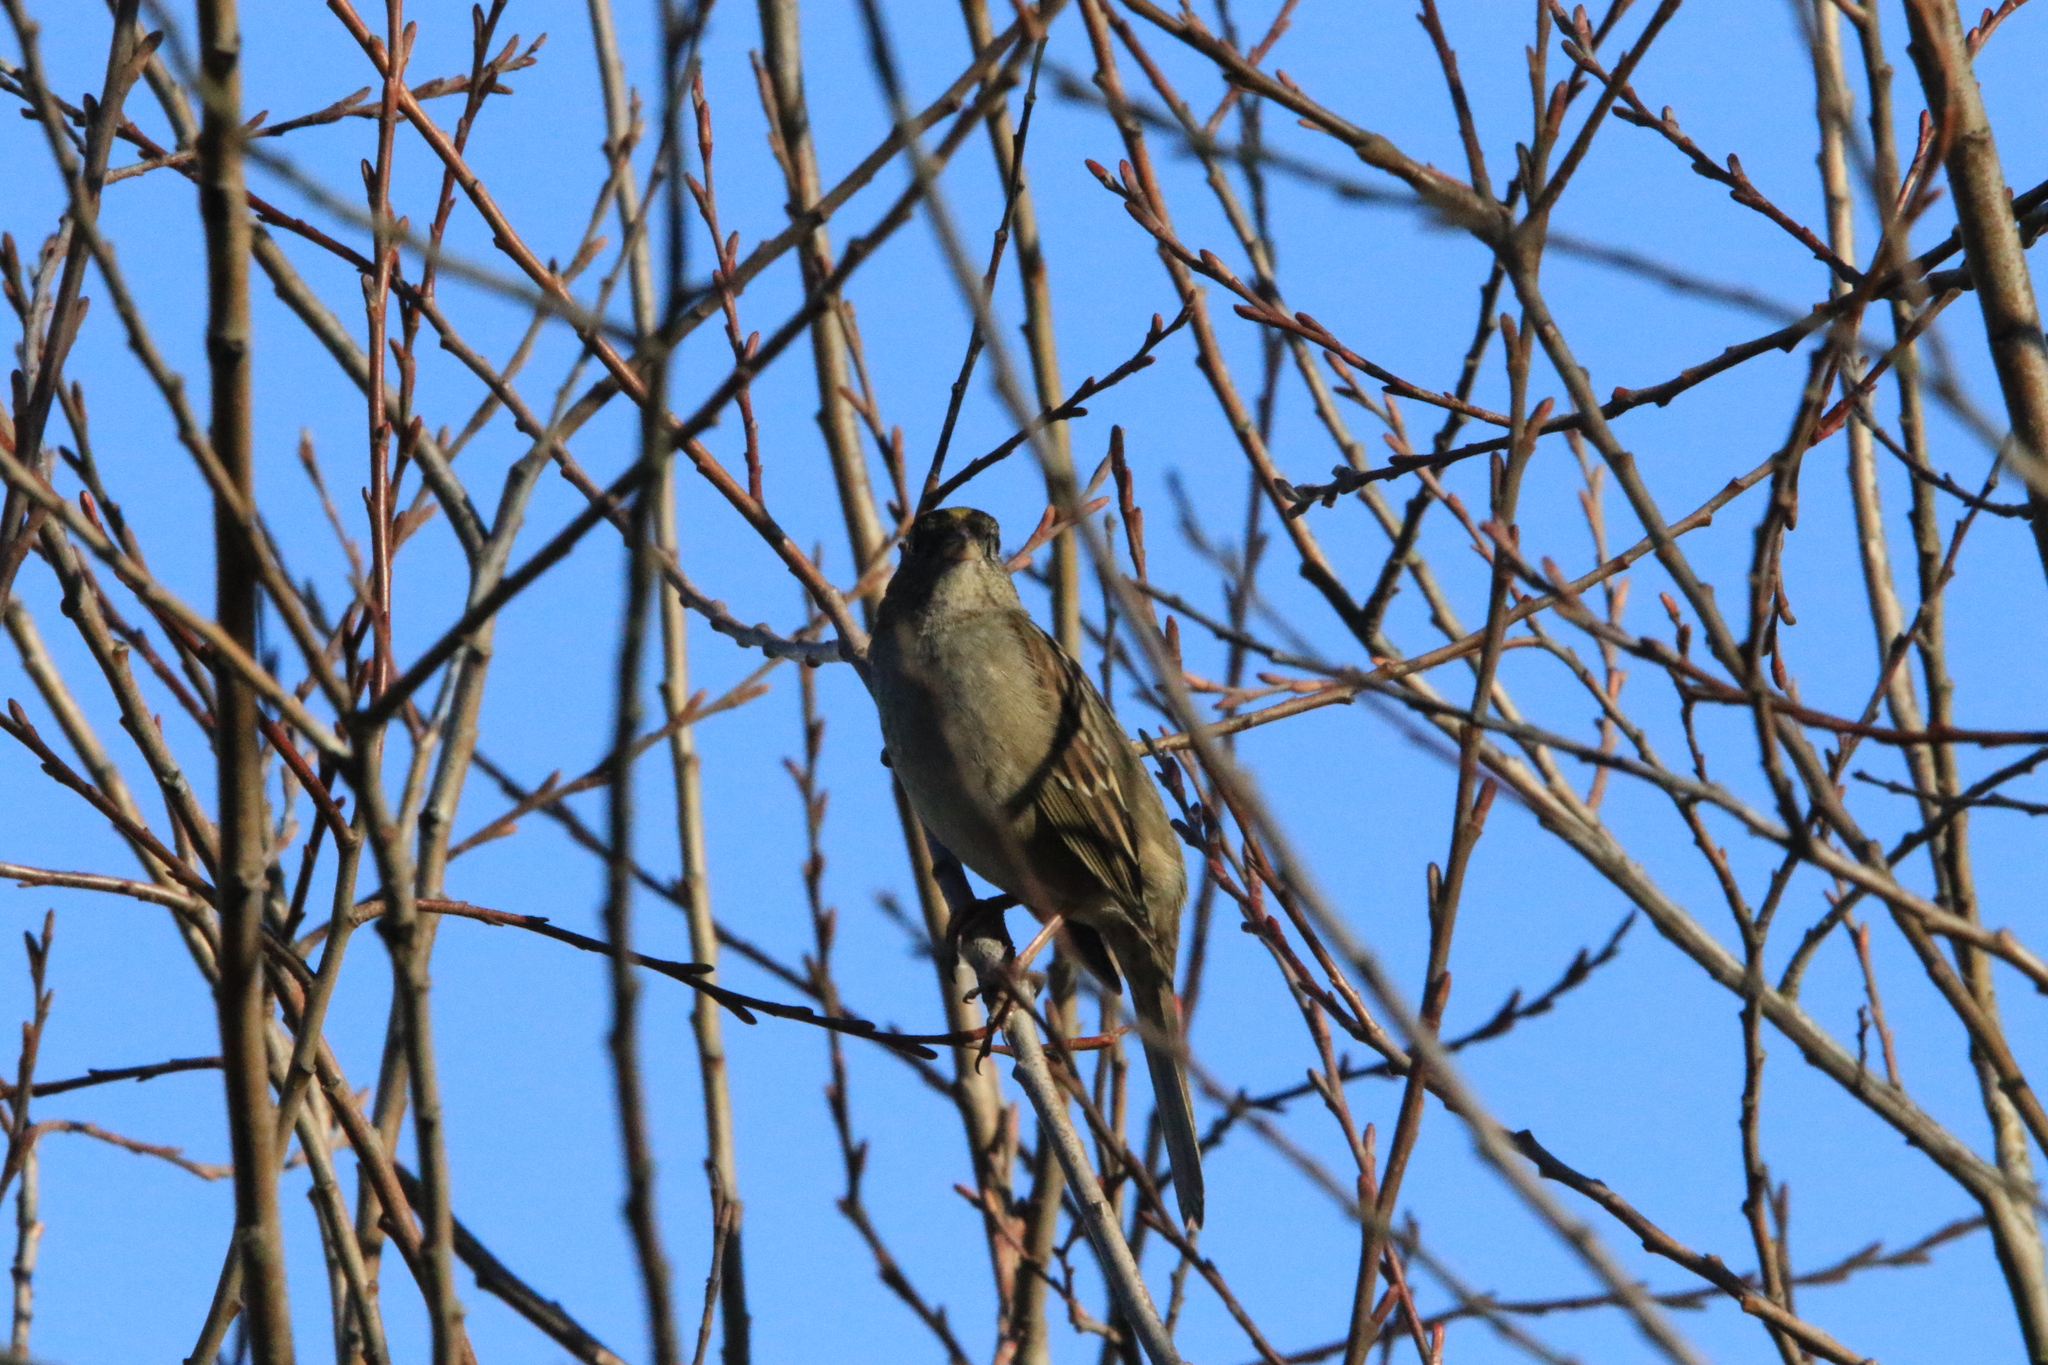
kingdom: Animalia
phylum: Chordata
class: Aves
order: Passeriformes
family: Passerellidae
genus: Zonotrichia
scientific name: Zonotrichia atricapilla
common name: Golden-crowned sparrow
